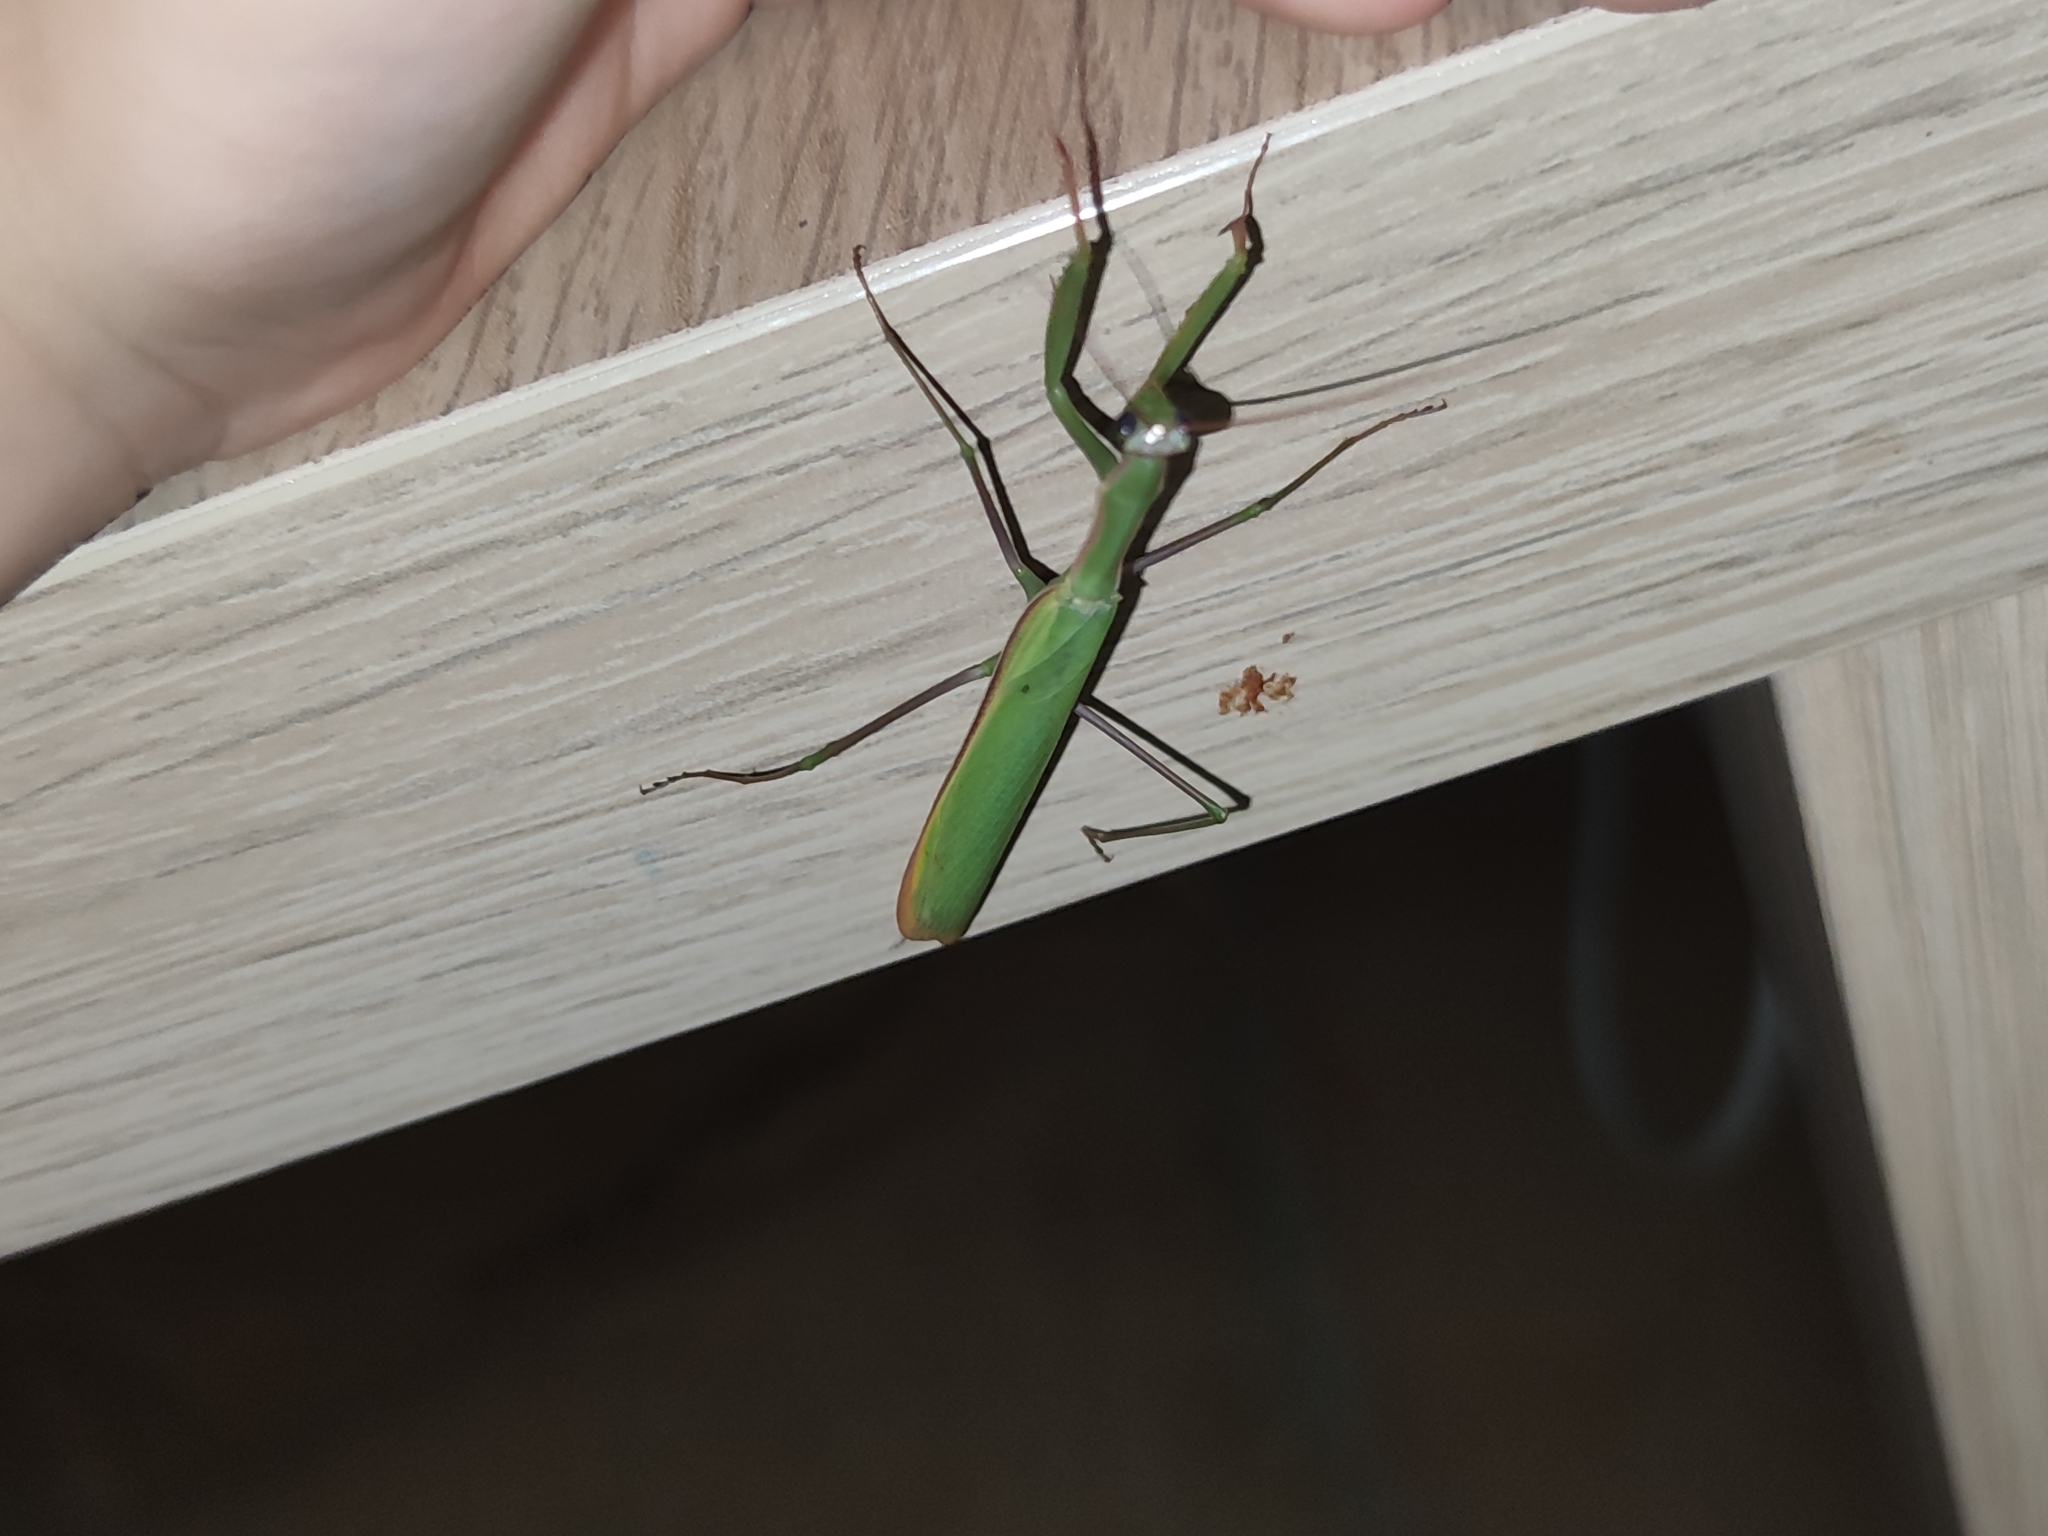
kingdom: Animalia
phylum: Arthropoda
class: Insecta
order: Mantodea
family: Mantidae
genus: Mantis
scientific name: Mantis religiosa
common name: Praying mantis
